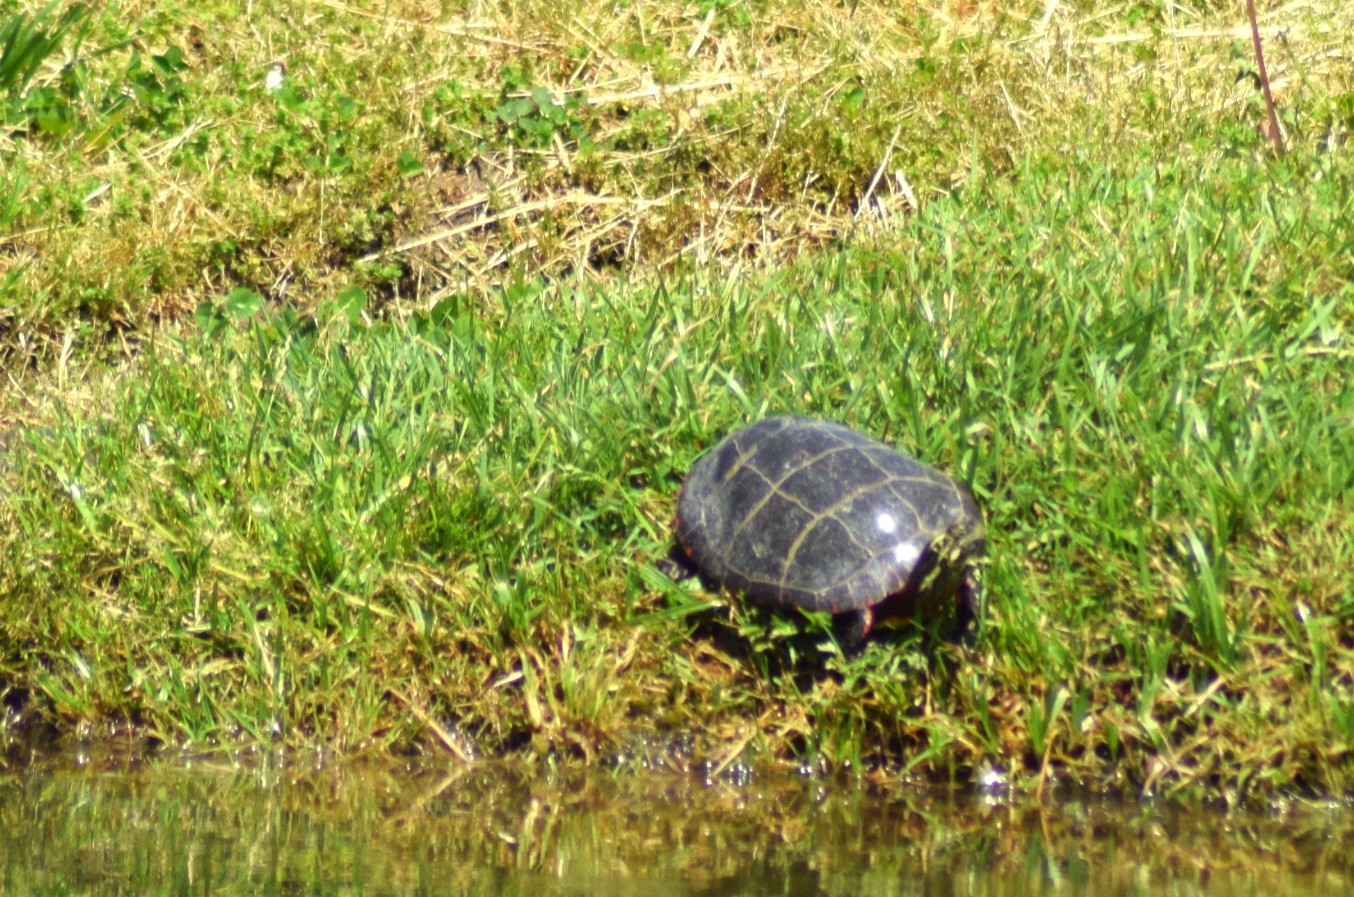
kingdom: Animalia
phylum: Chordata
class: Testudines
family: Emydidae
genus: Chrysemys
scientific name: Chrysemys picta
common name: Painted turtle
